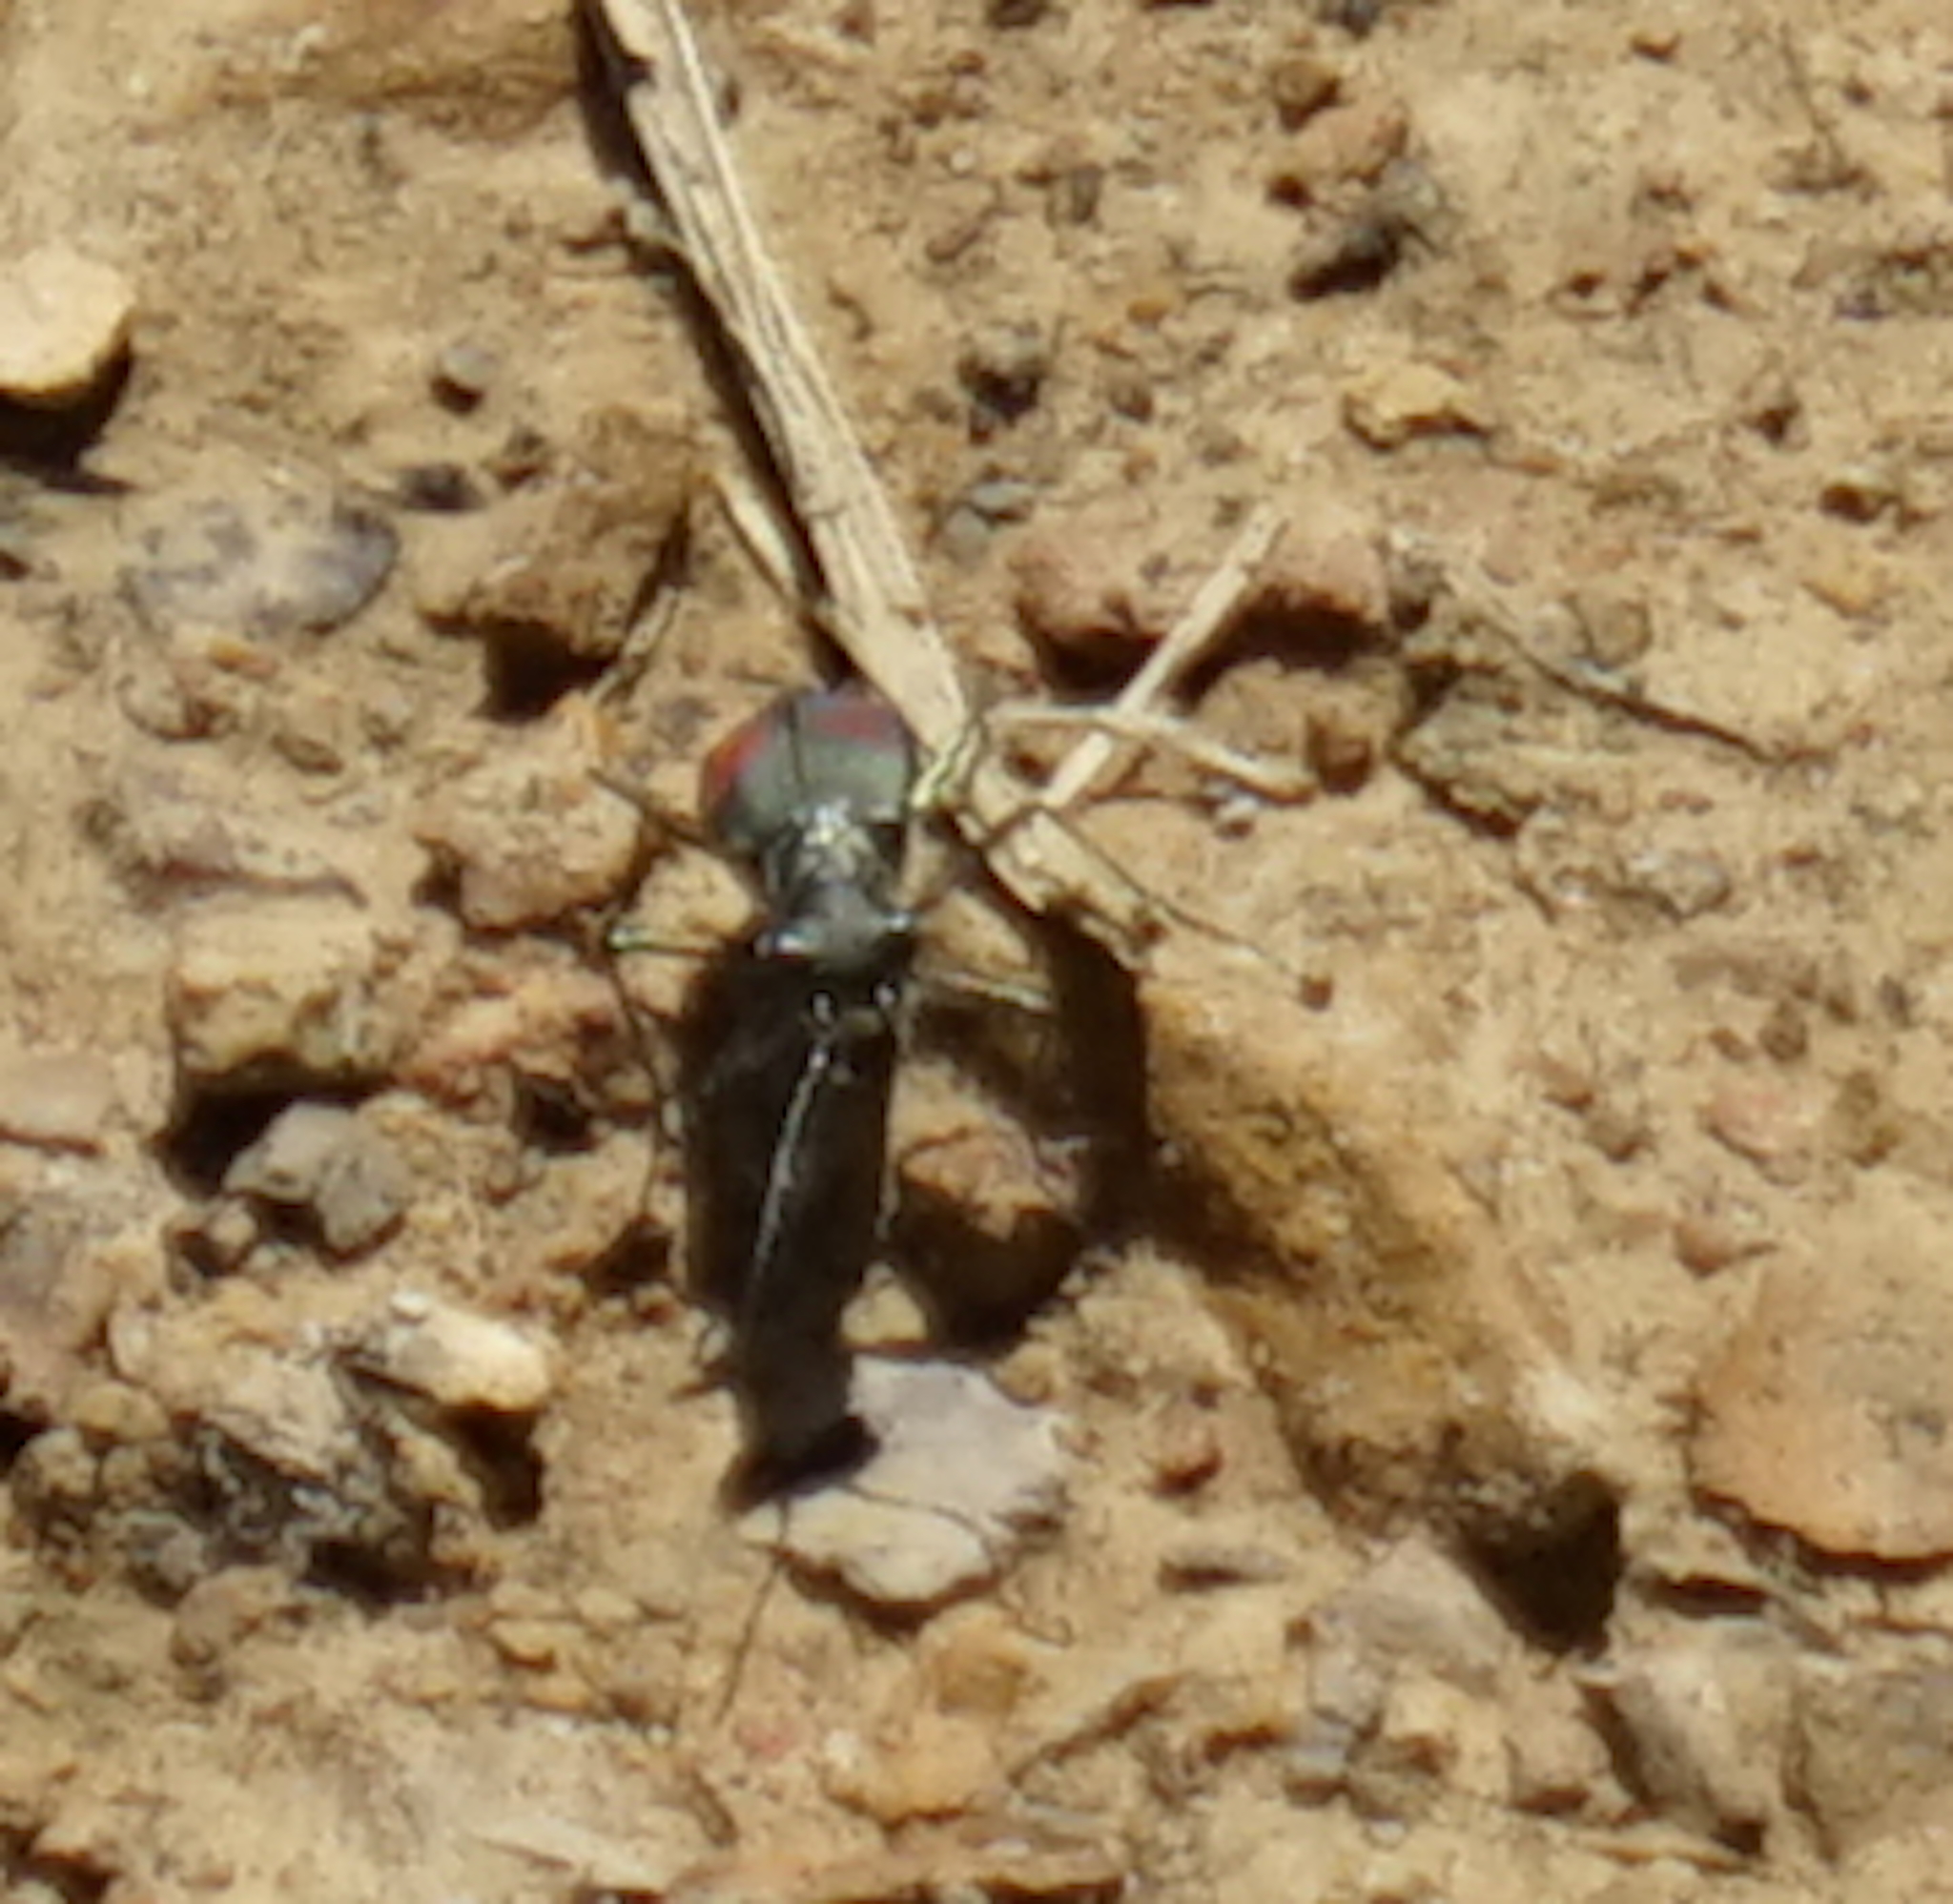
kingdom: Animalia
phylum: Arthropoda
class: Insecta
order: Coleoptera
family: Carabidae
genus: Cicindela
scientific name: Cicindela crespignyi
